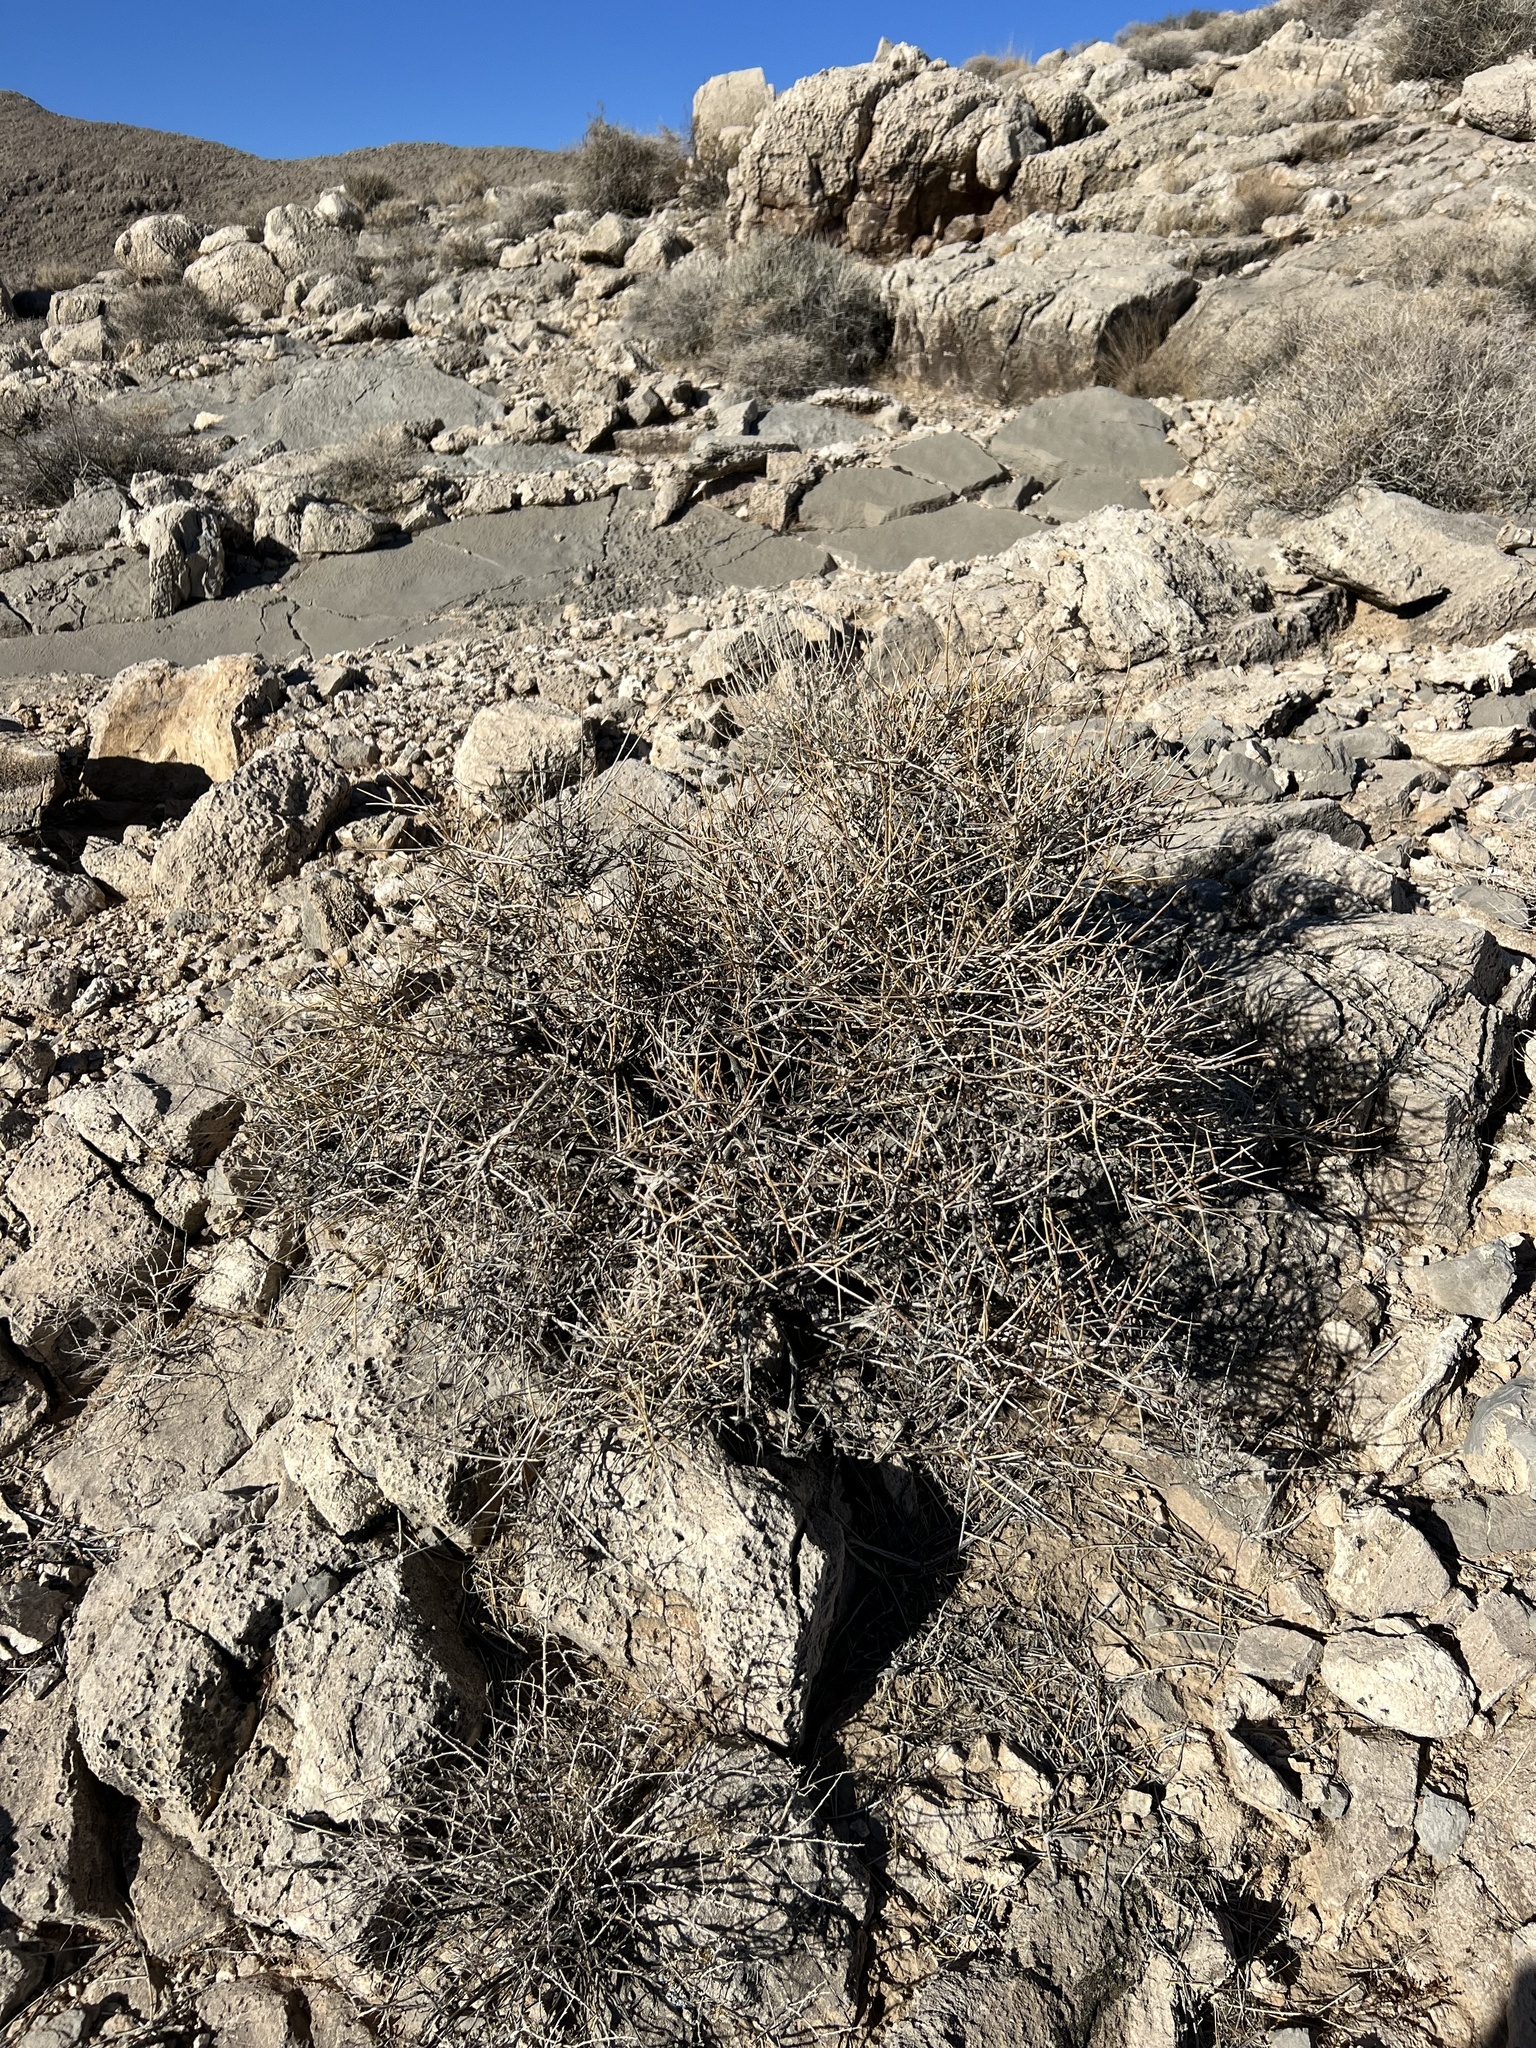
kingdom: Plantae
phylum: Tracheophyta
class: Gnetopsida
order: Ephedrales
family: Ephedraceae
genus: Ephedra
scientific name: Ephedra nevadensis
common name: Gray ephedra
